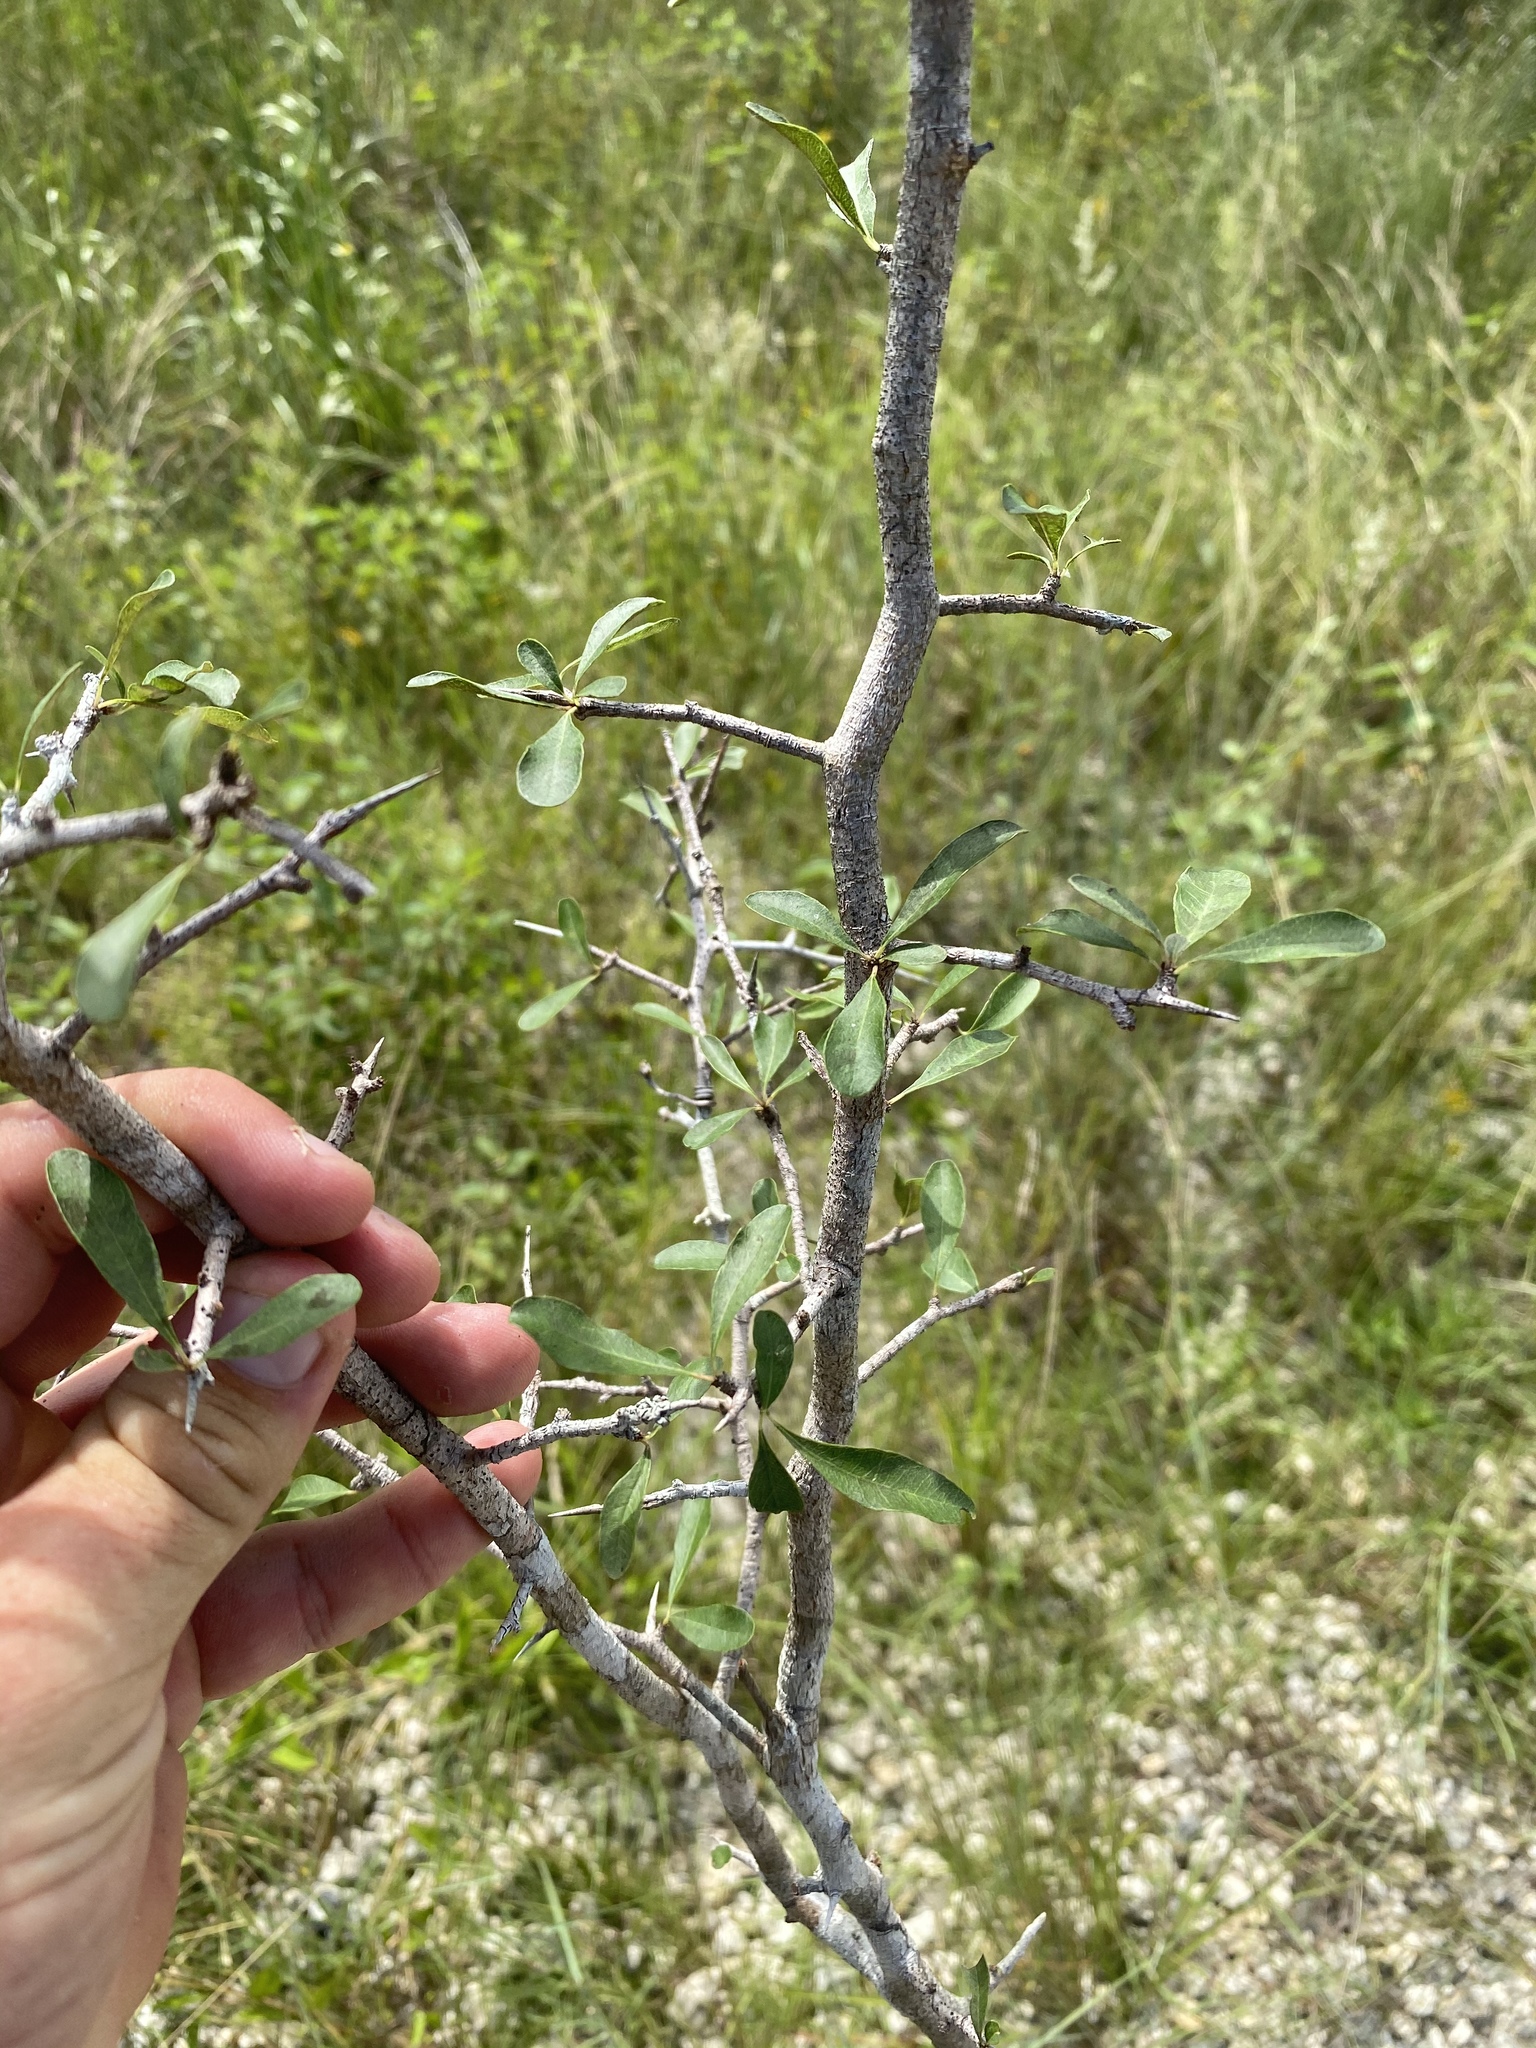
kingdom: Plantae
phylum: Tracheophyta
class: Magnoliopsida
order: Ericales
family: Sapotaceae
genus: Sideroxylon
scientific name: Sideroxylon reclinatum
